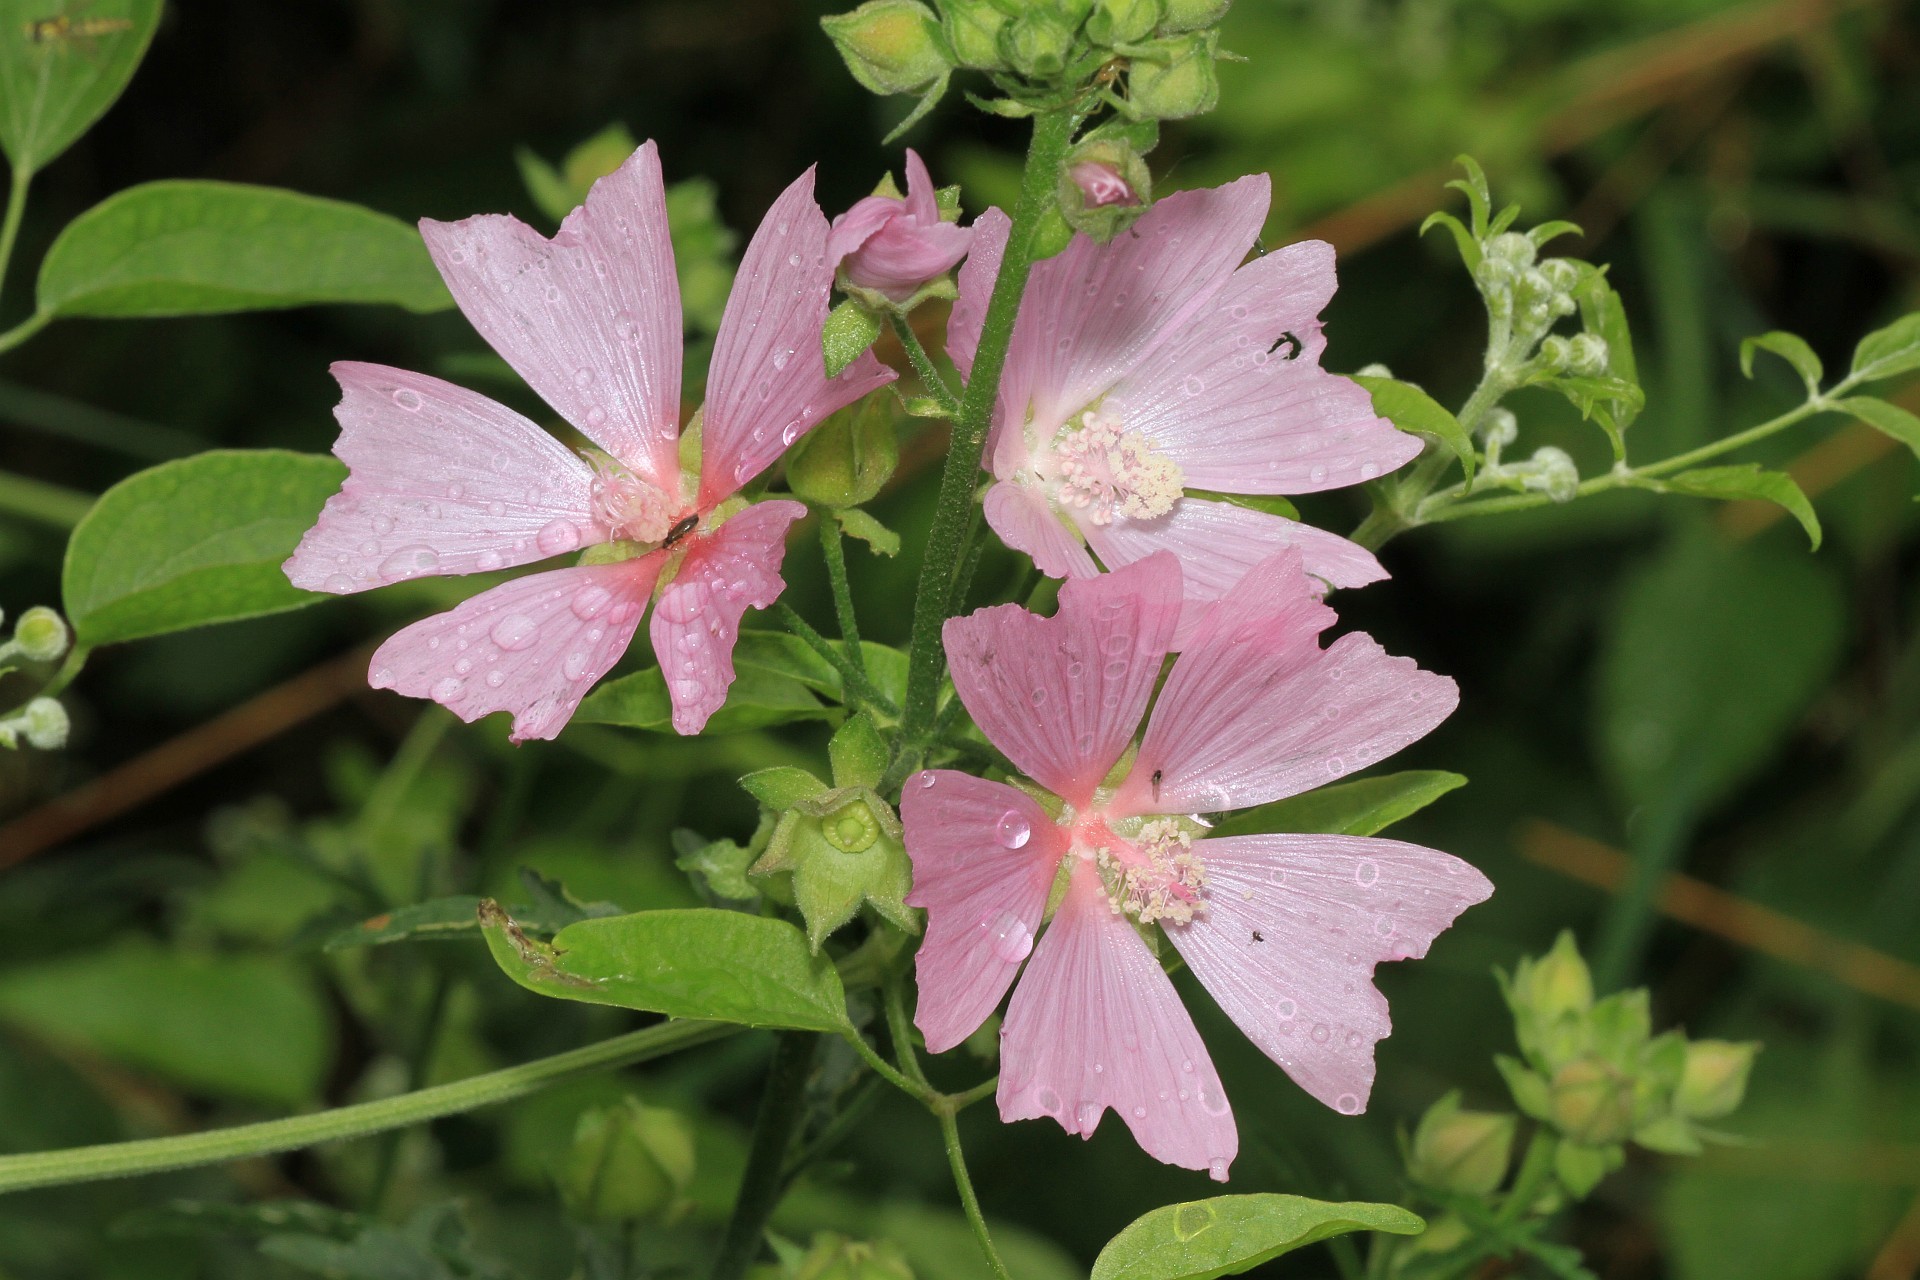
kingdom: Plantae
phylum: Tracheophyta
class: Magnoliopsida
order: Malvales
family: Malvaceae
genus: Malva
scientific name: Malva alcea
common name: Greater musk-mallow
